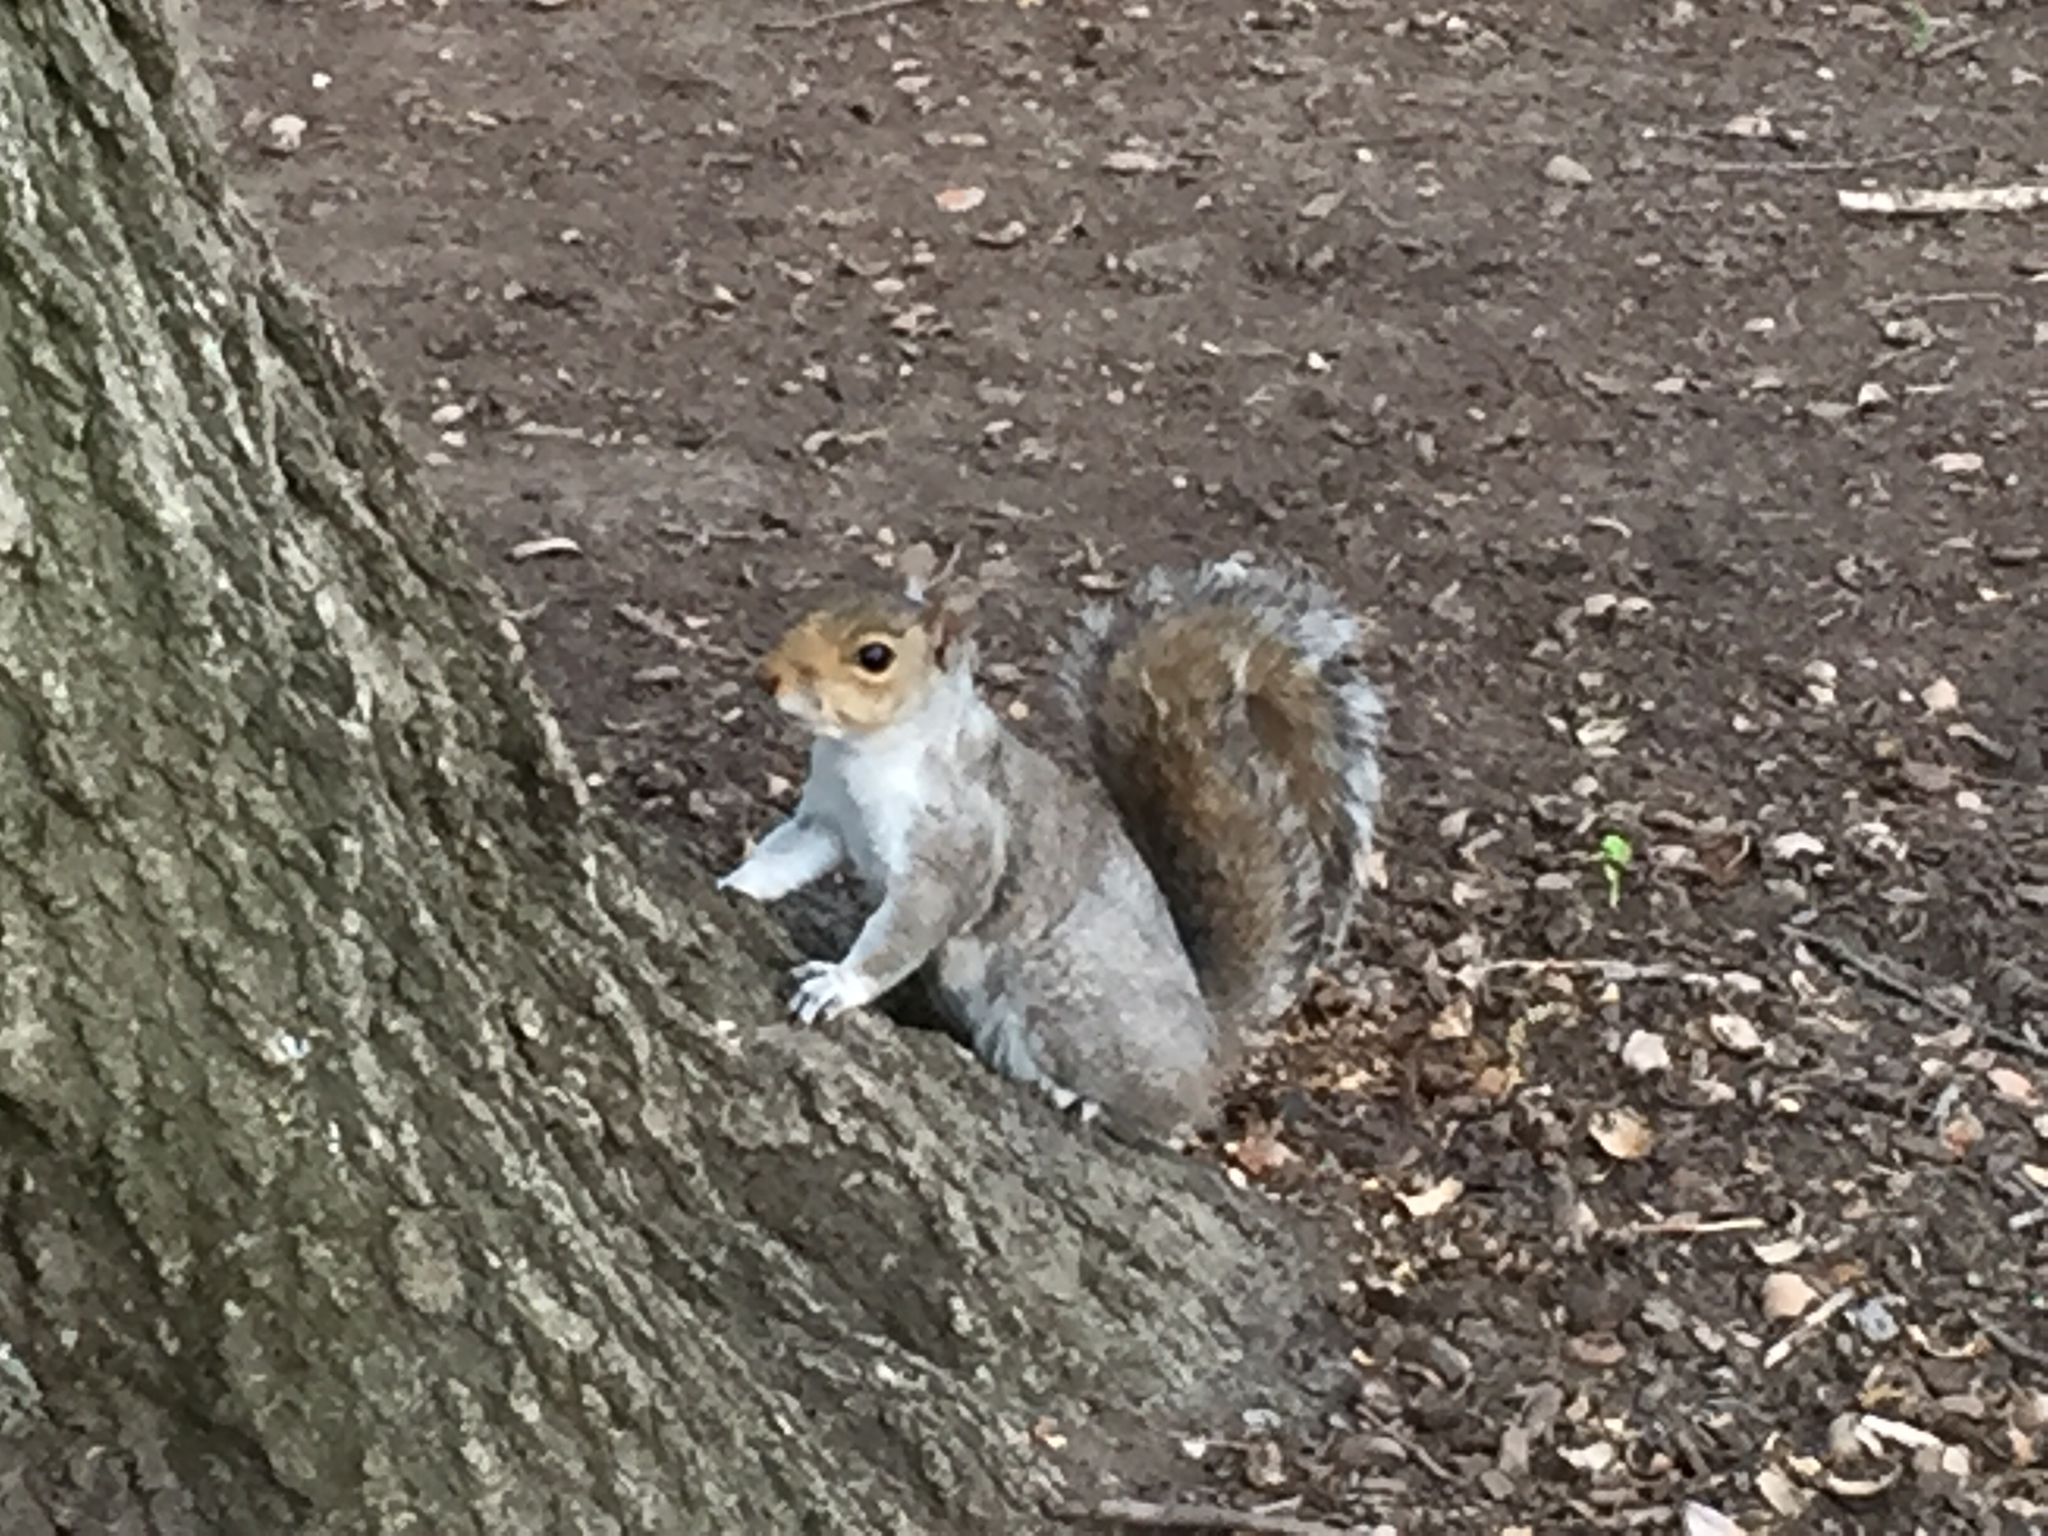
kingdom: Animalia
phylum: Chordata
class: Mammalia
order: Rodentia
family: Sciuridae
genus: Sciurus
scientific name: Sciurus carolinensis
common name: Eastern gray squirrel
